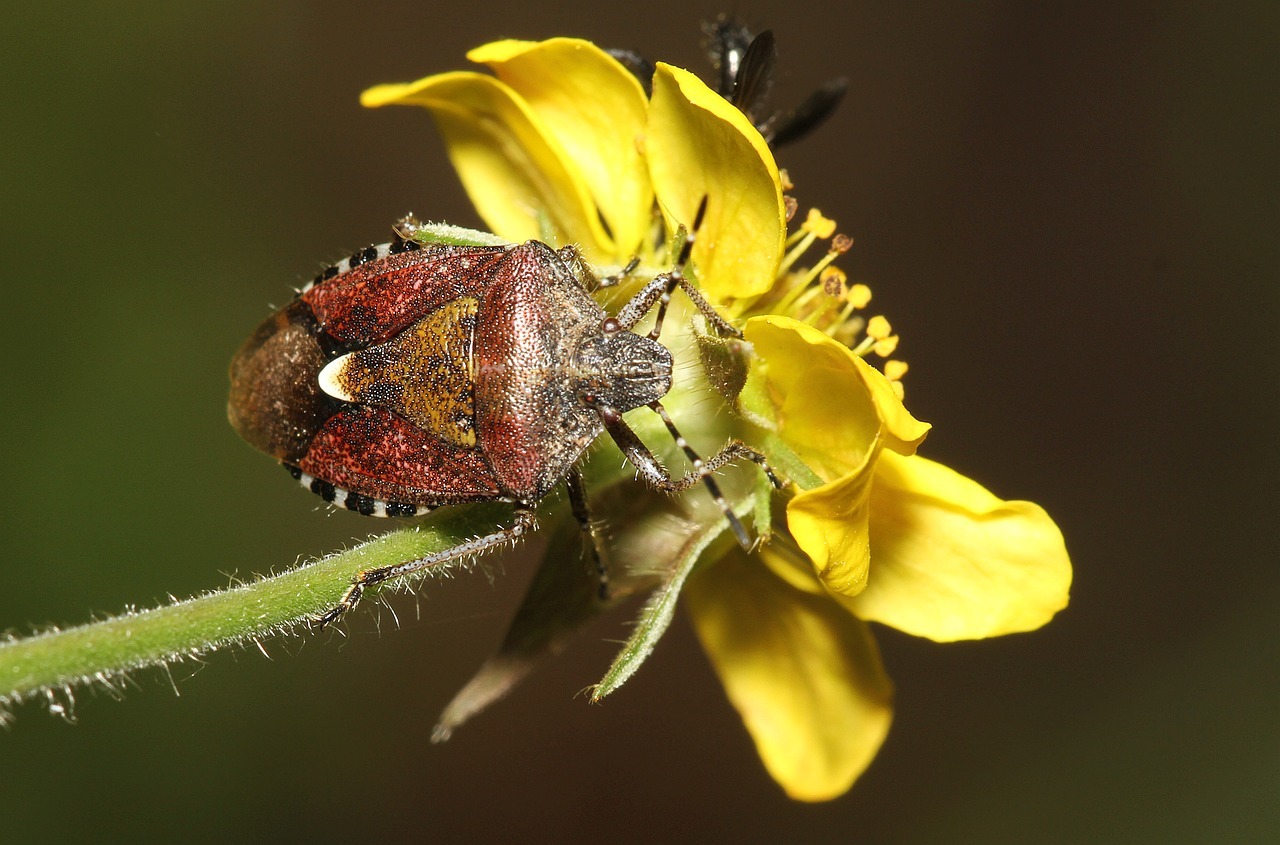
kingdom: Animalia
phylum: Arthropoda
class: Insecta
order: Hemiptera
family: Pentatomidae
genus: Dolycoris
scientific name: Dolycoris baccarum
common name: Sloe bug
